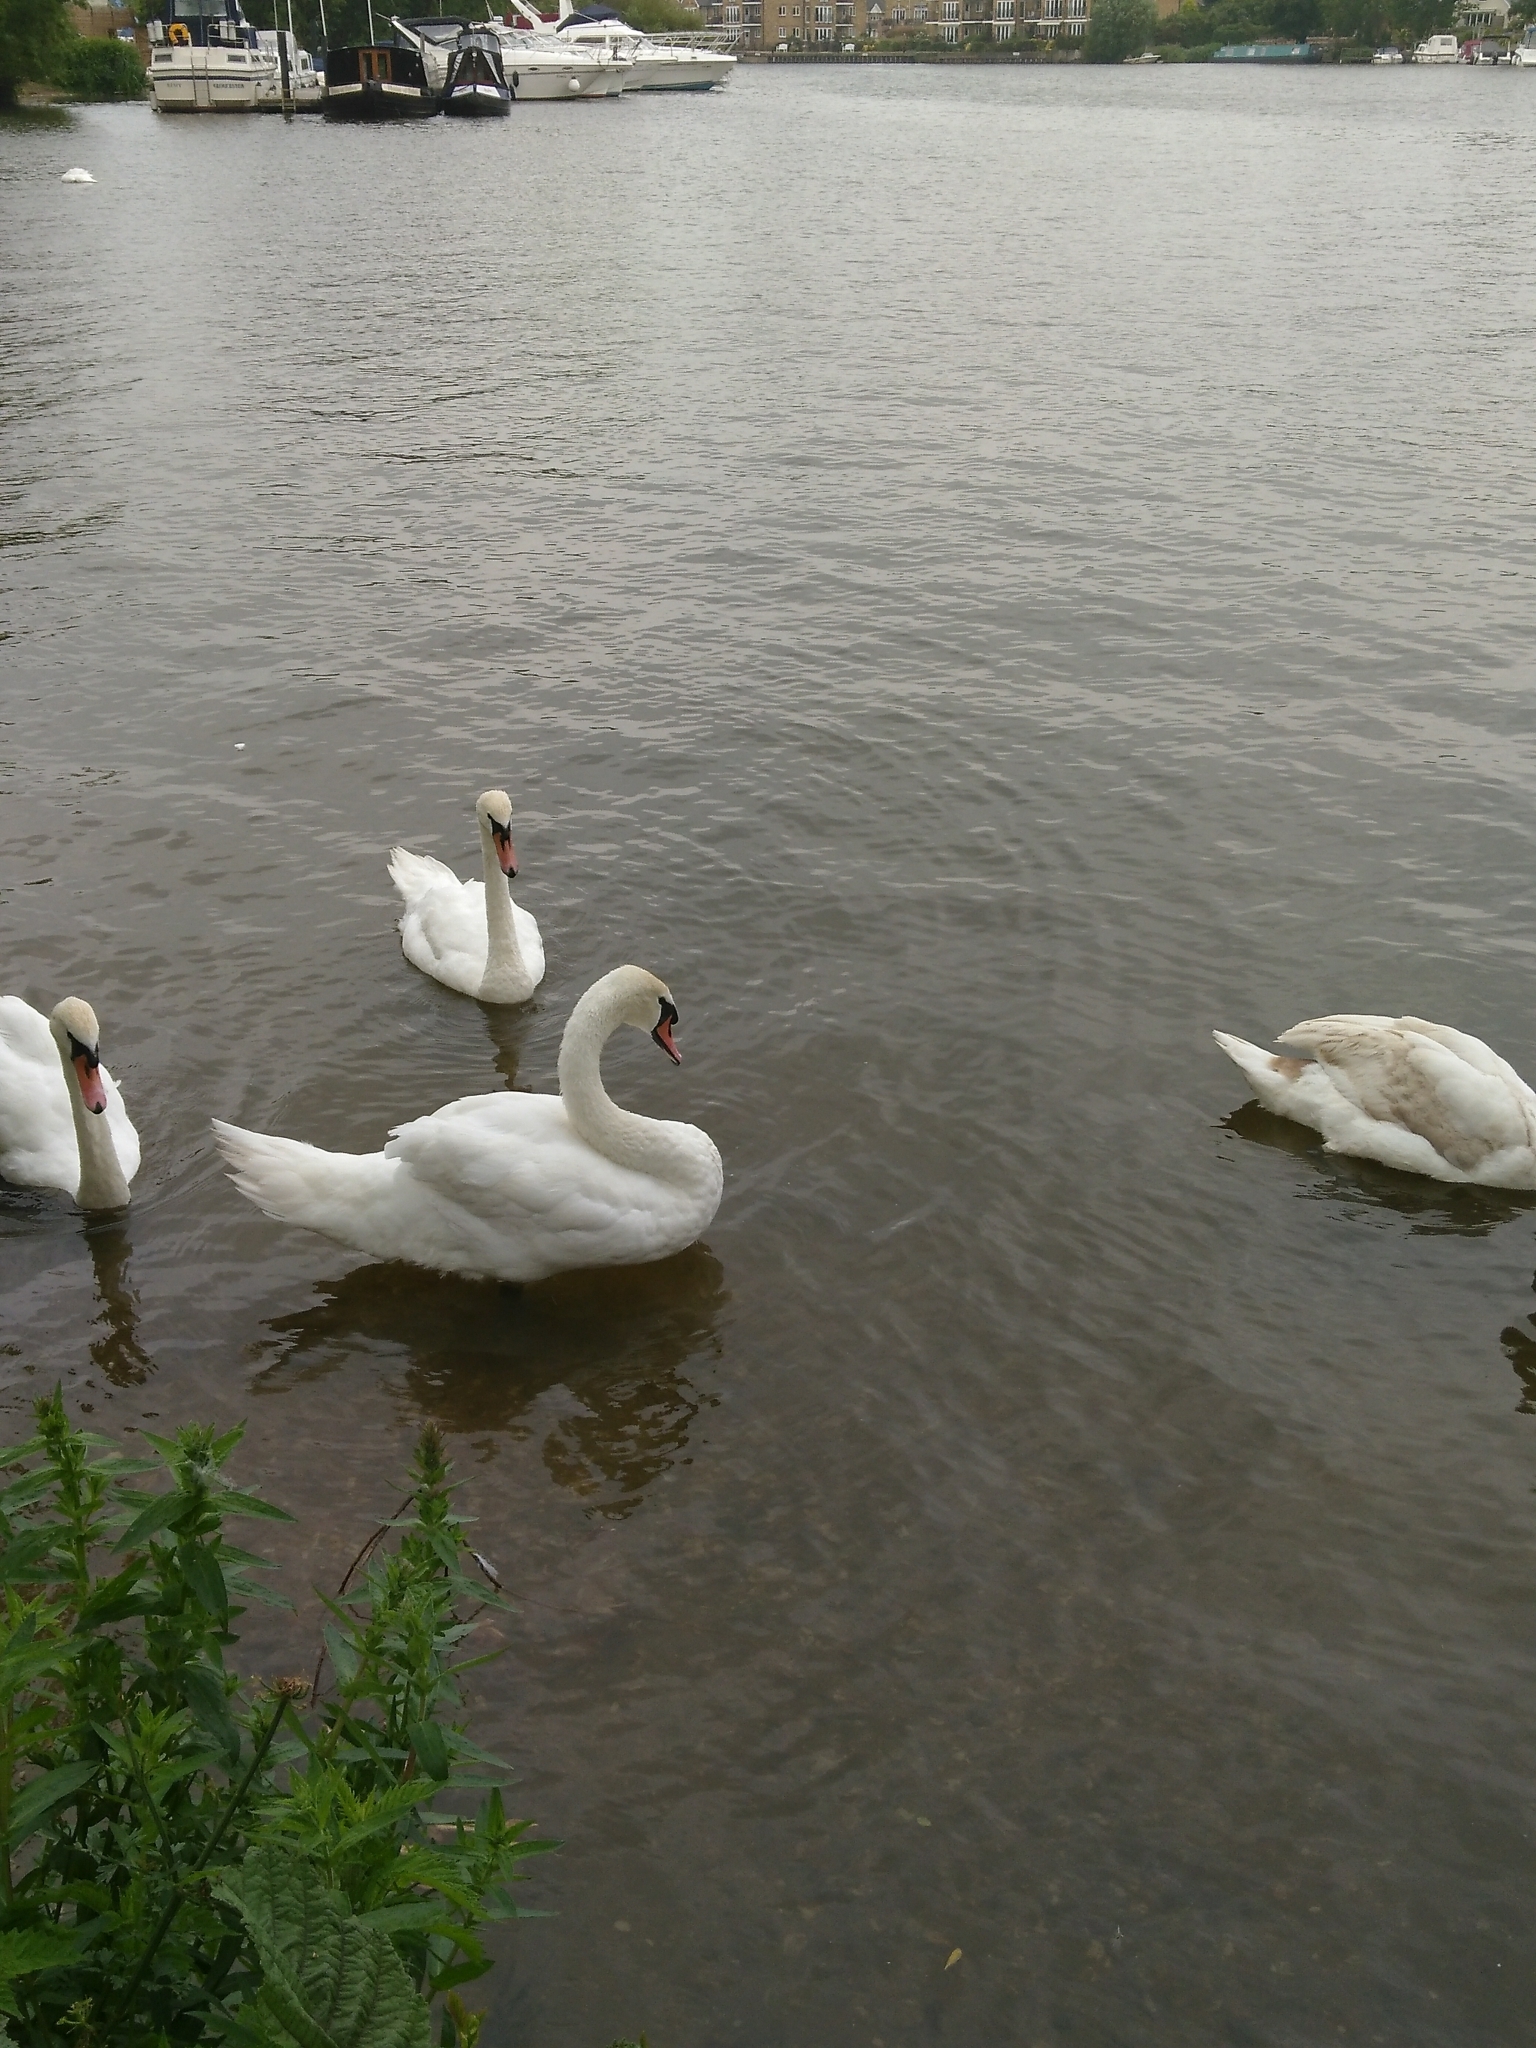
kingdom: Animalia
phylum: Chordata
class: Aves
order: Anseriformes
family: Anatidae
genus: Cygnus
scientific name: Cygnus olor
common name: Mute swan
